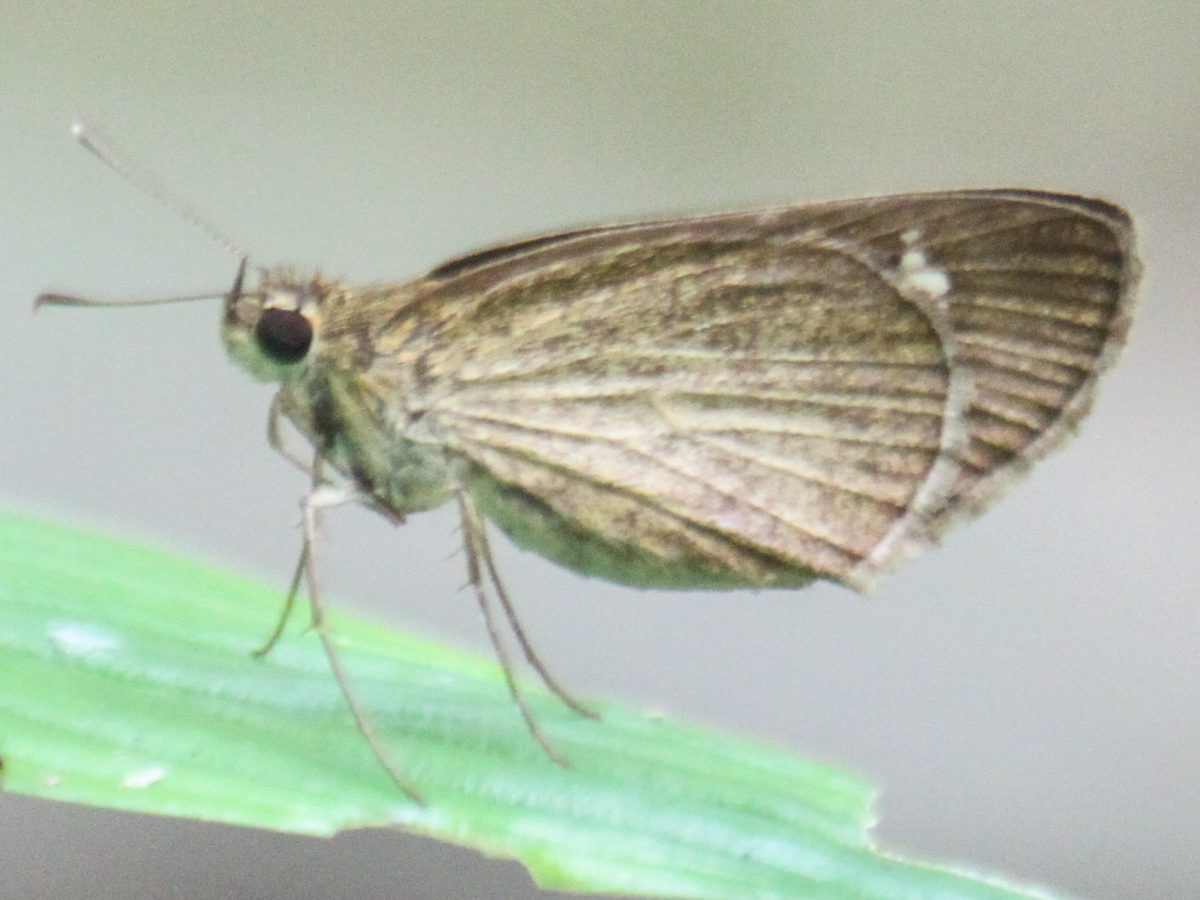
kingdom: Animalia
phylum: Arthropoda
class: Insecta
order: Lepidoptera
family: Hesperiidae
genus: Suada
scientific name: Suada swerga
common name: Grass bob
